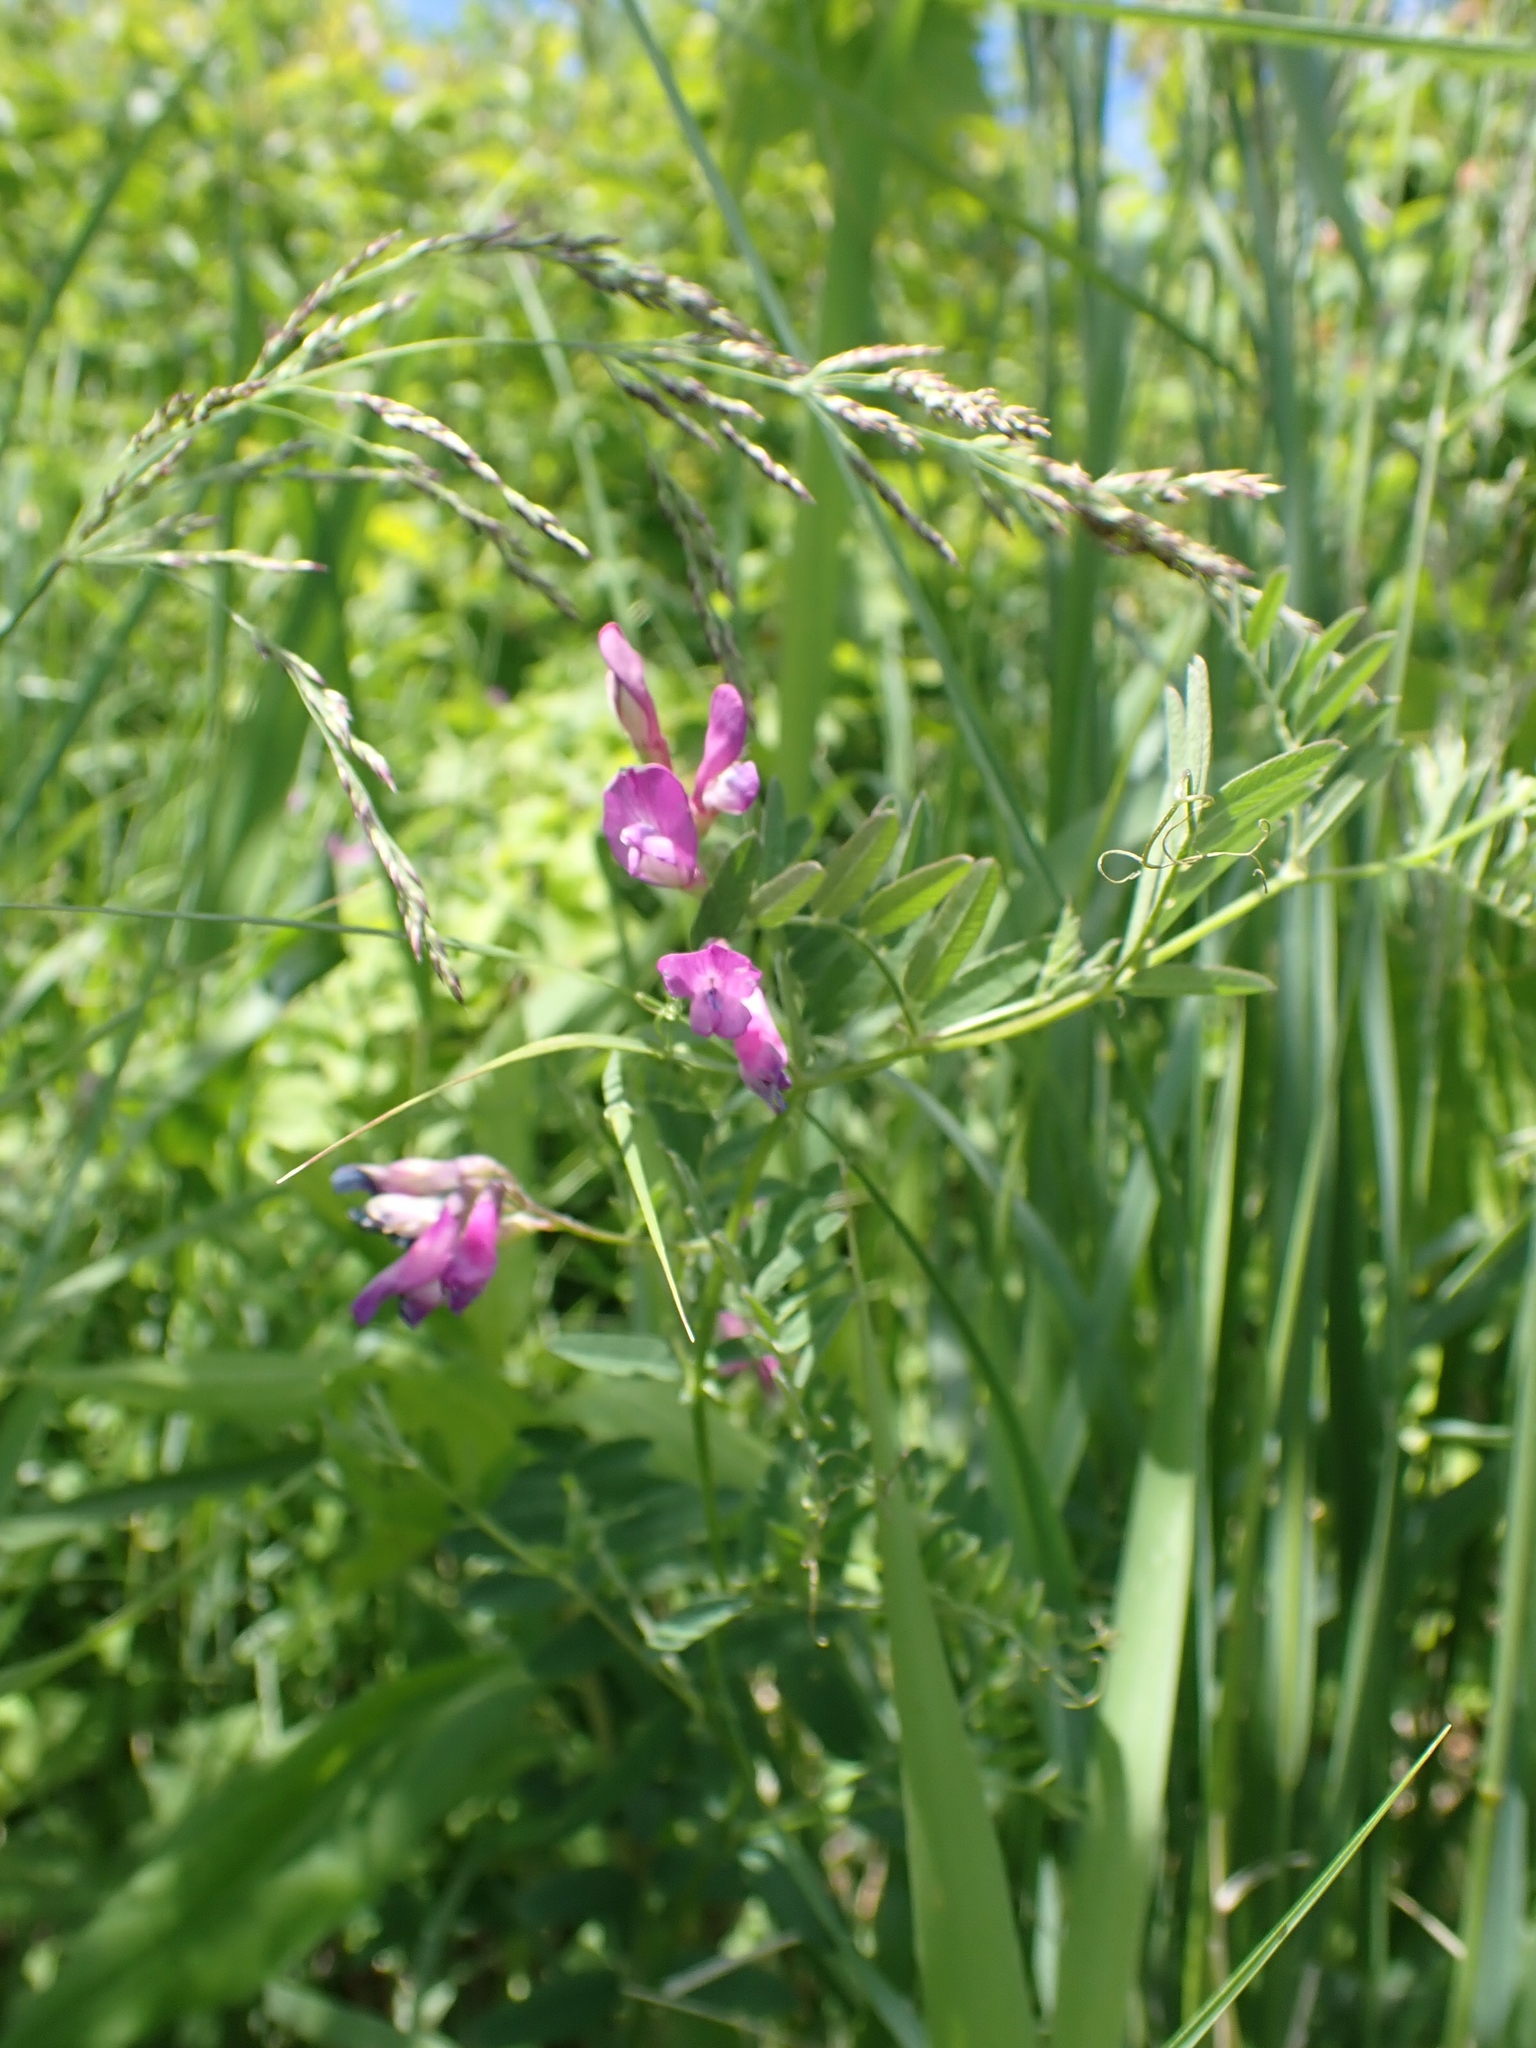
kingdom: Plantae
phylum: Tracheophyta
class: Magnoliopsida
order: Fabales
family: Fabaceae
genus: Vicia
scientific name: Vicia americana
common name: American vetch
